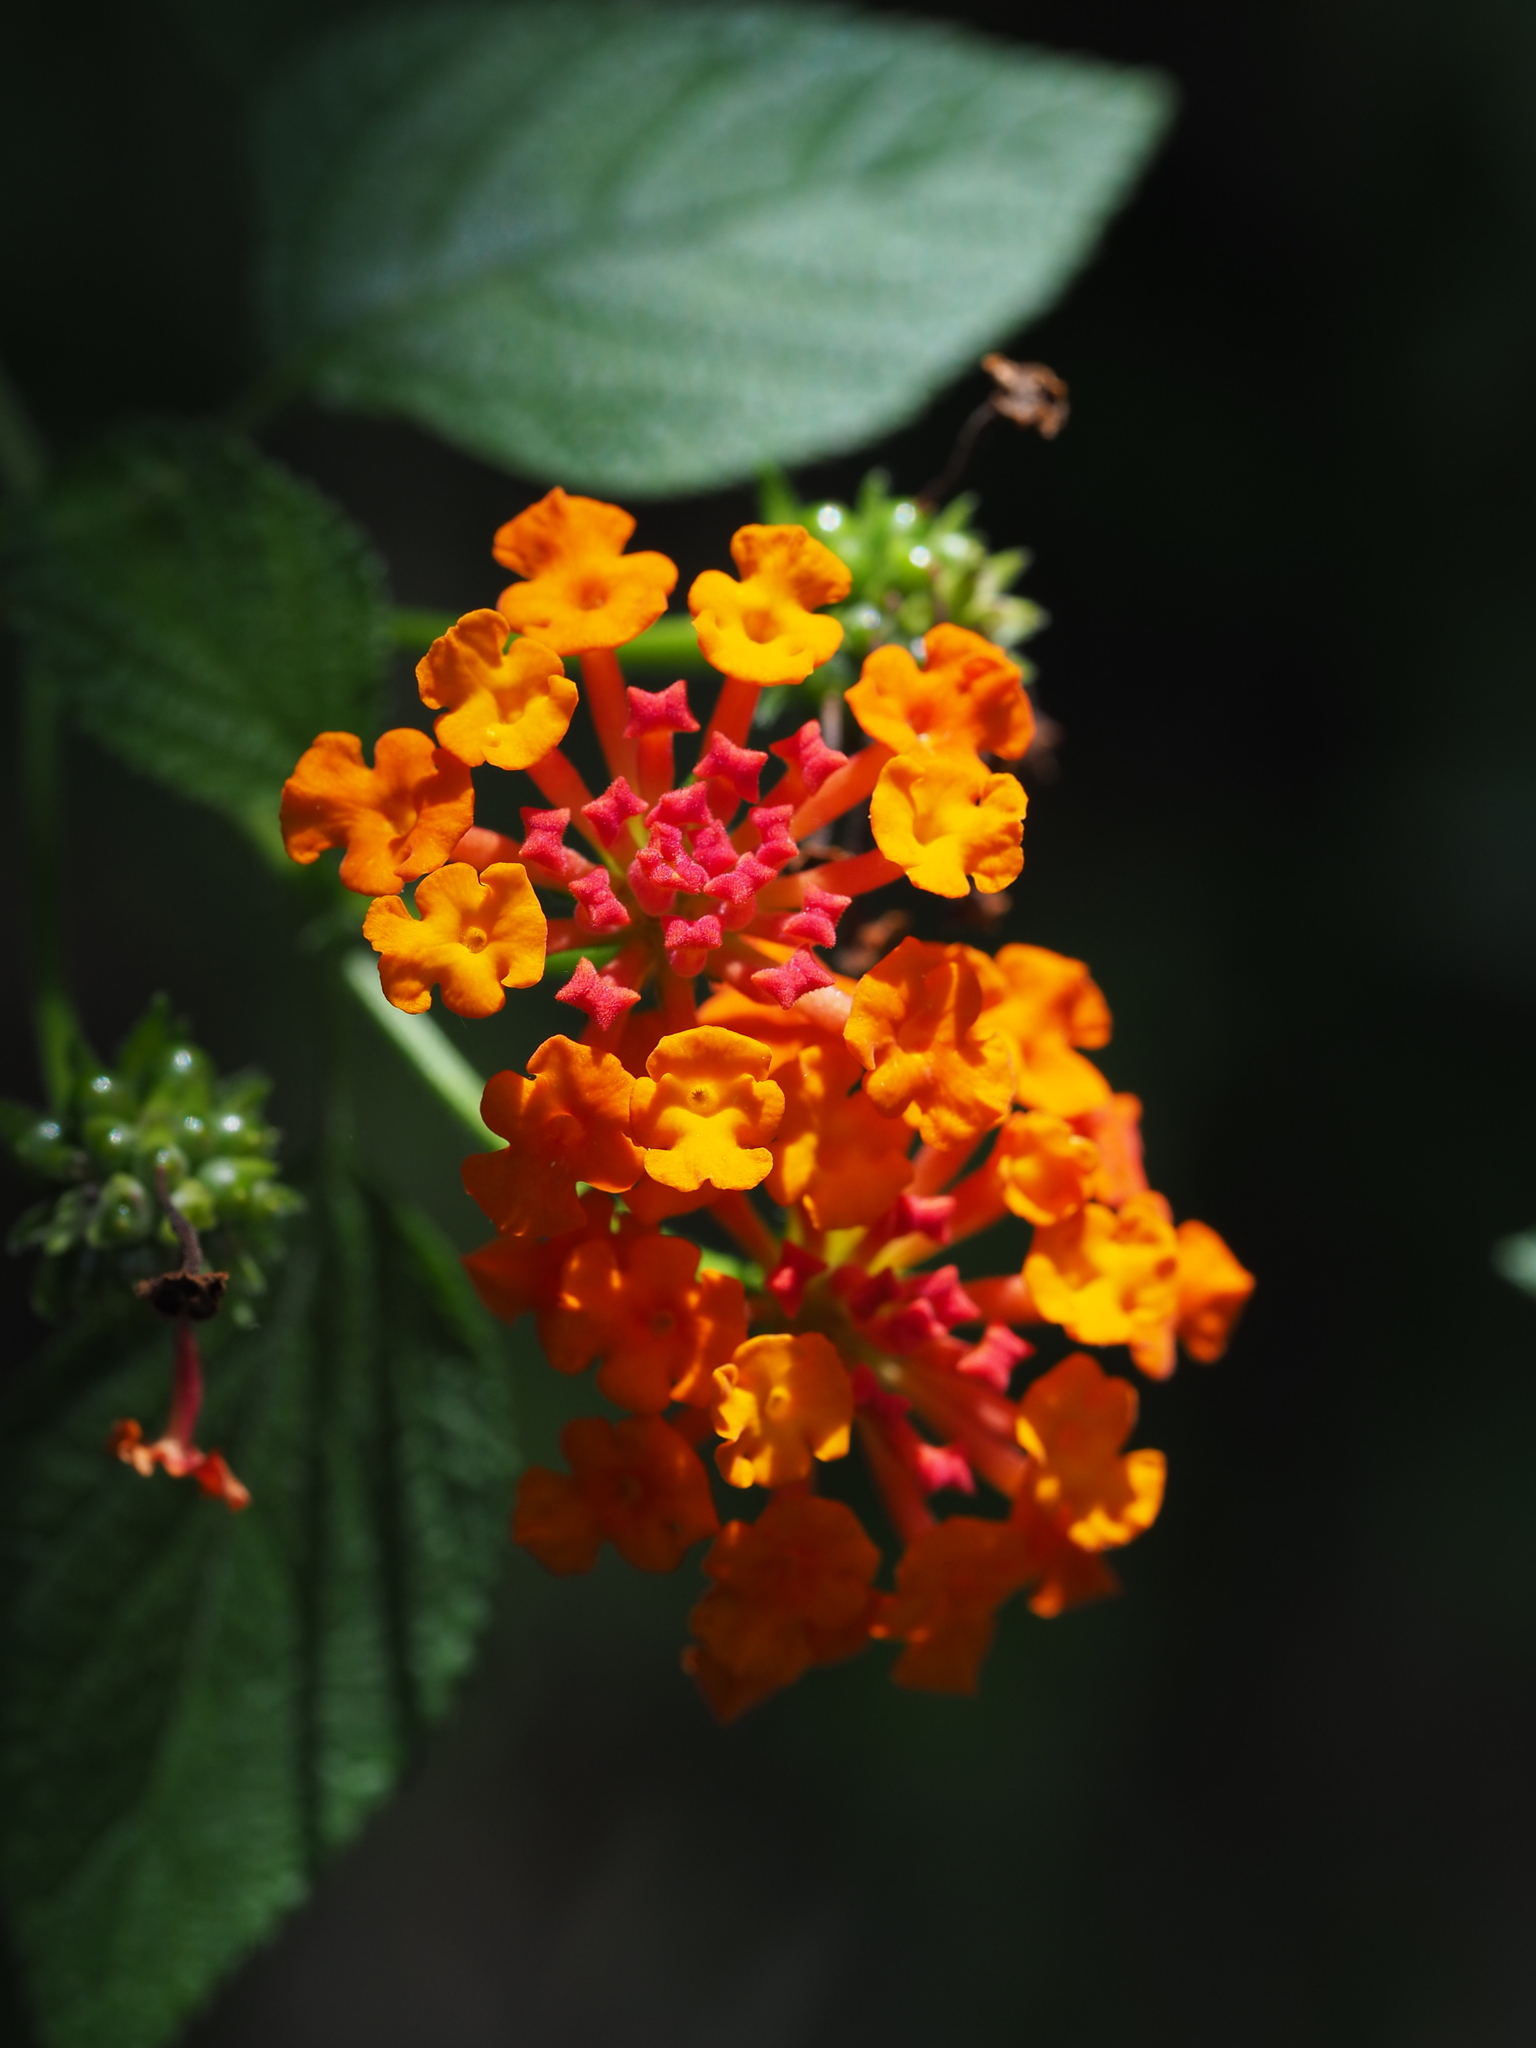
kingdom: Plantae
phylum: Tracheophyta
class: Magnoliopsida
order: Lamiales
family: Verbenaceae
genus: Lantana
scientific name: Lantana camara
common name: Lantana
